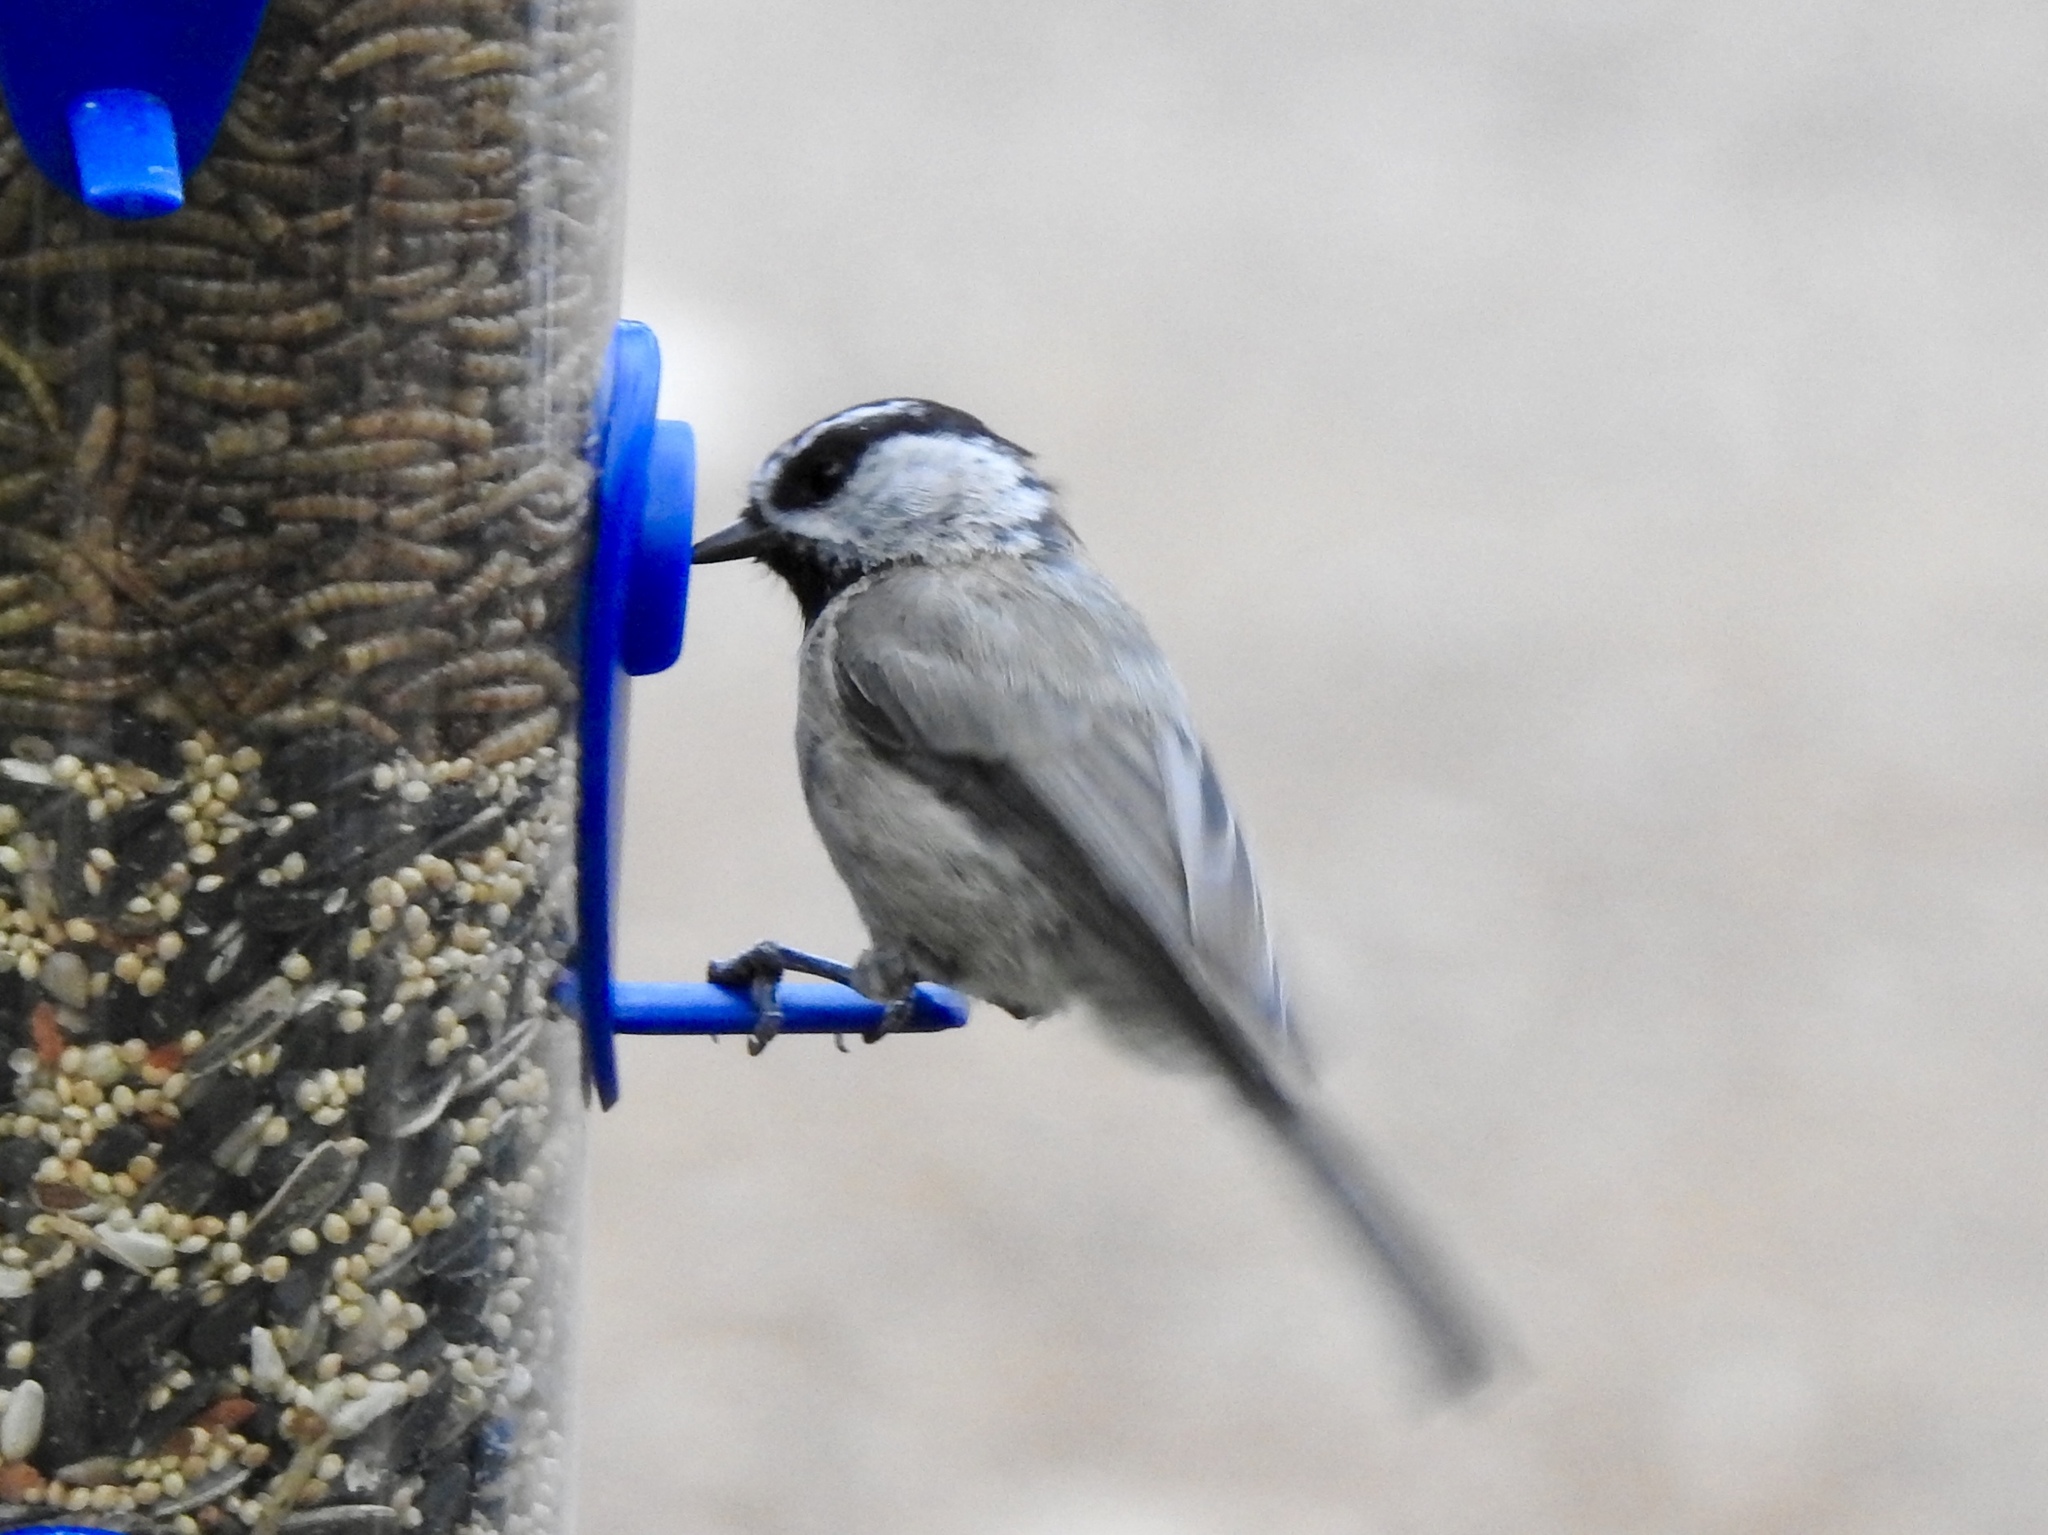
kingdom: Animalia
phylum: Chordata
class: Aves
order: Passeriformes
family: Paridae
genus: Poecile
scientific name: Poecile gambeli
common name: Mountain chickadee
